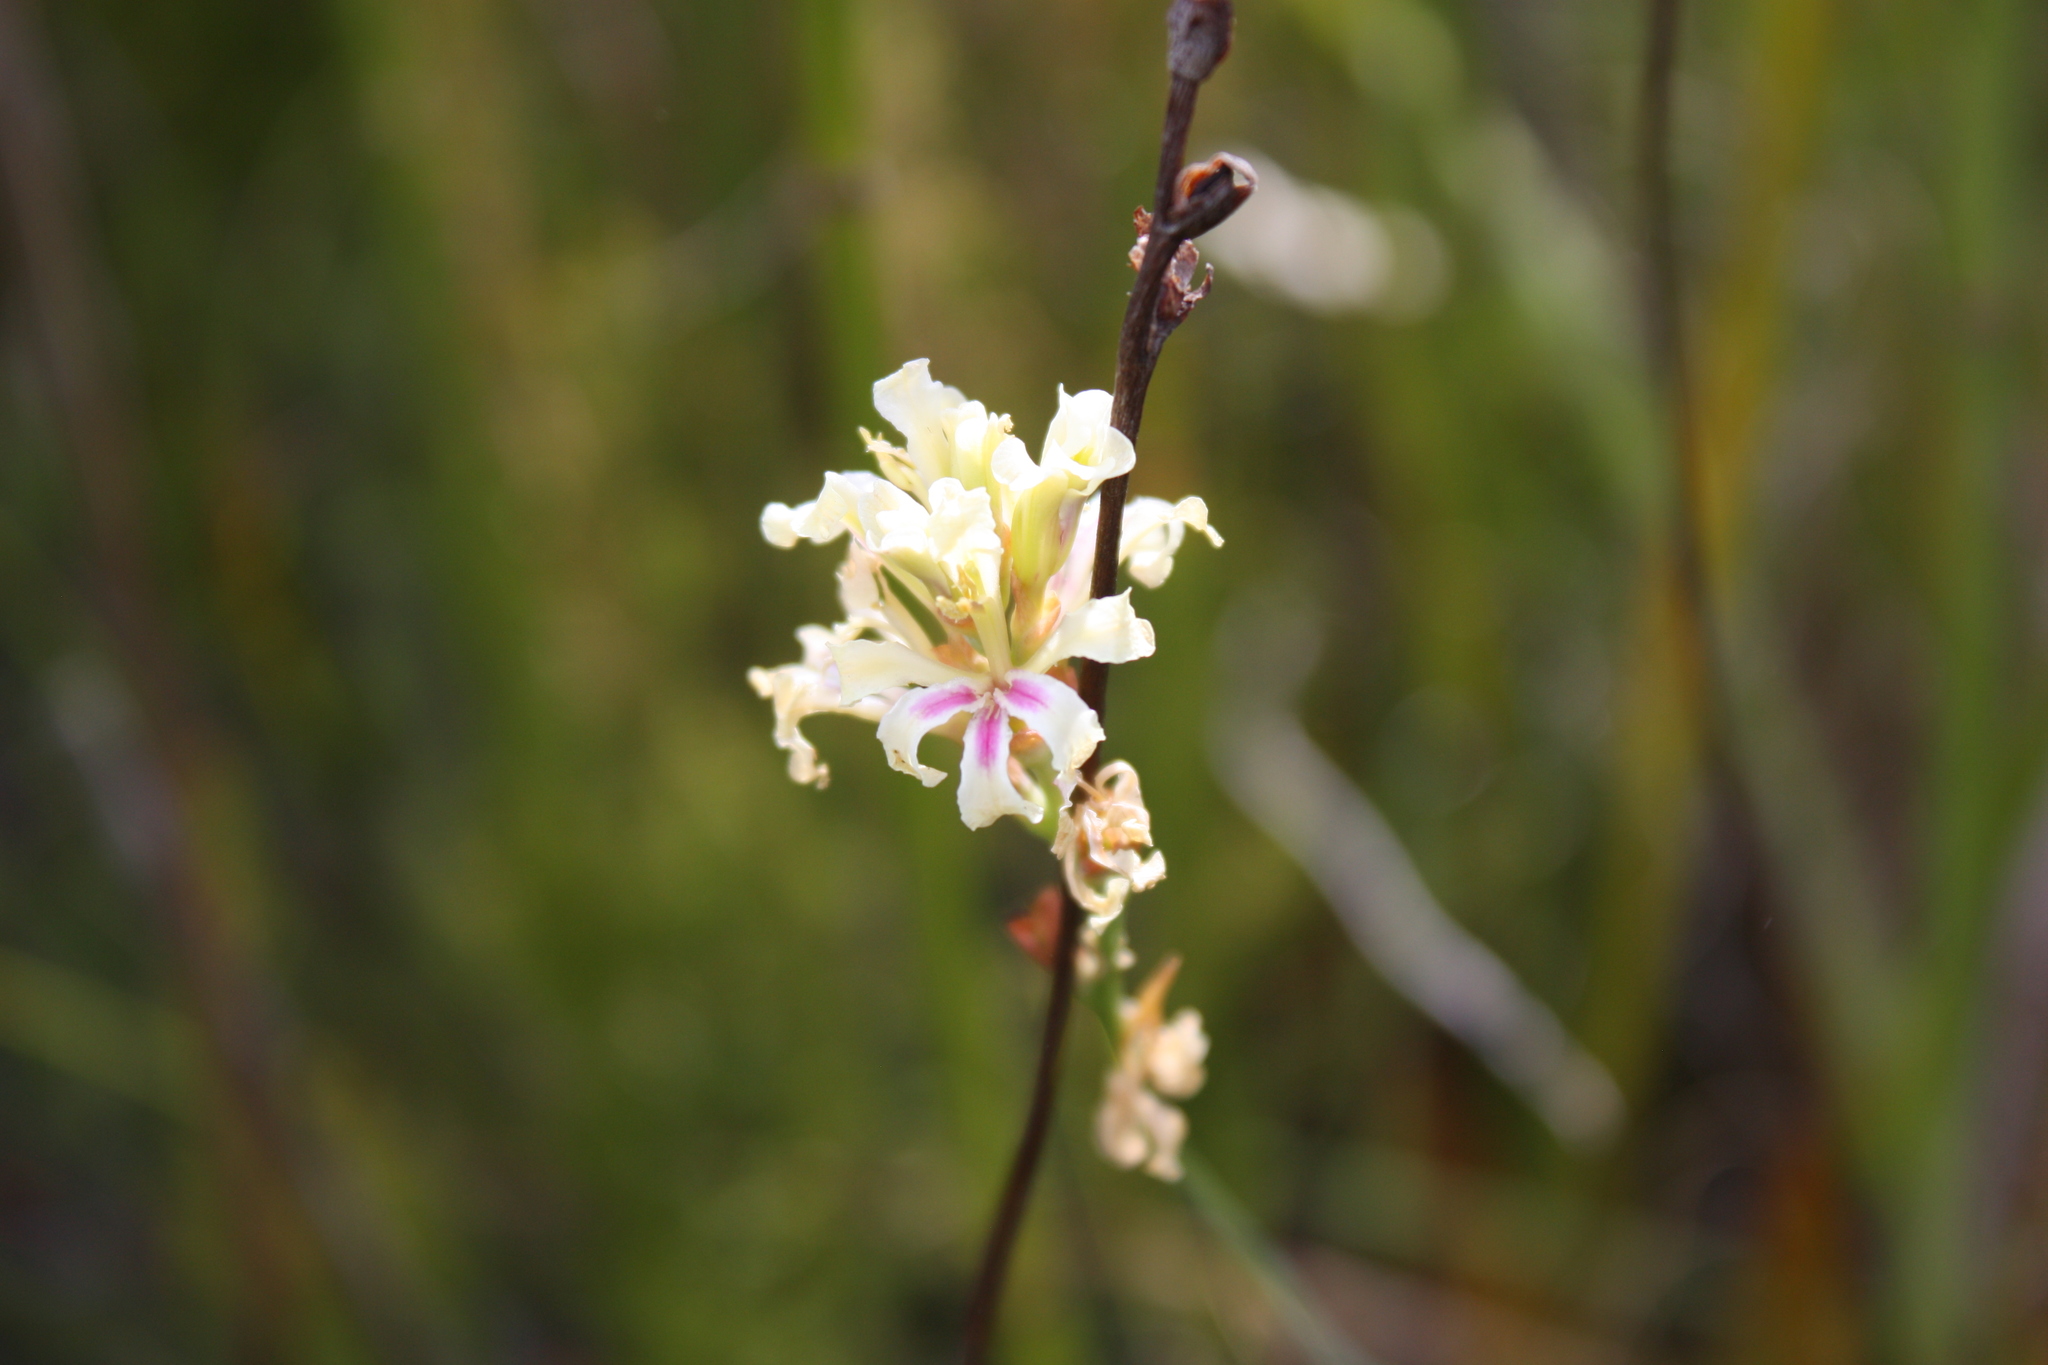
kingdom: Plantae
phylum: Tracheophyta
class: Liliopsida
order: Asparagales
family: Iridaceae
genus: Tritoniopsis
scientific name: Tritoniopsis unguicularis
